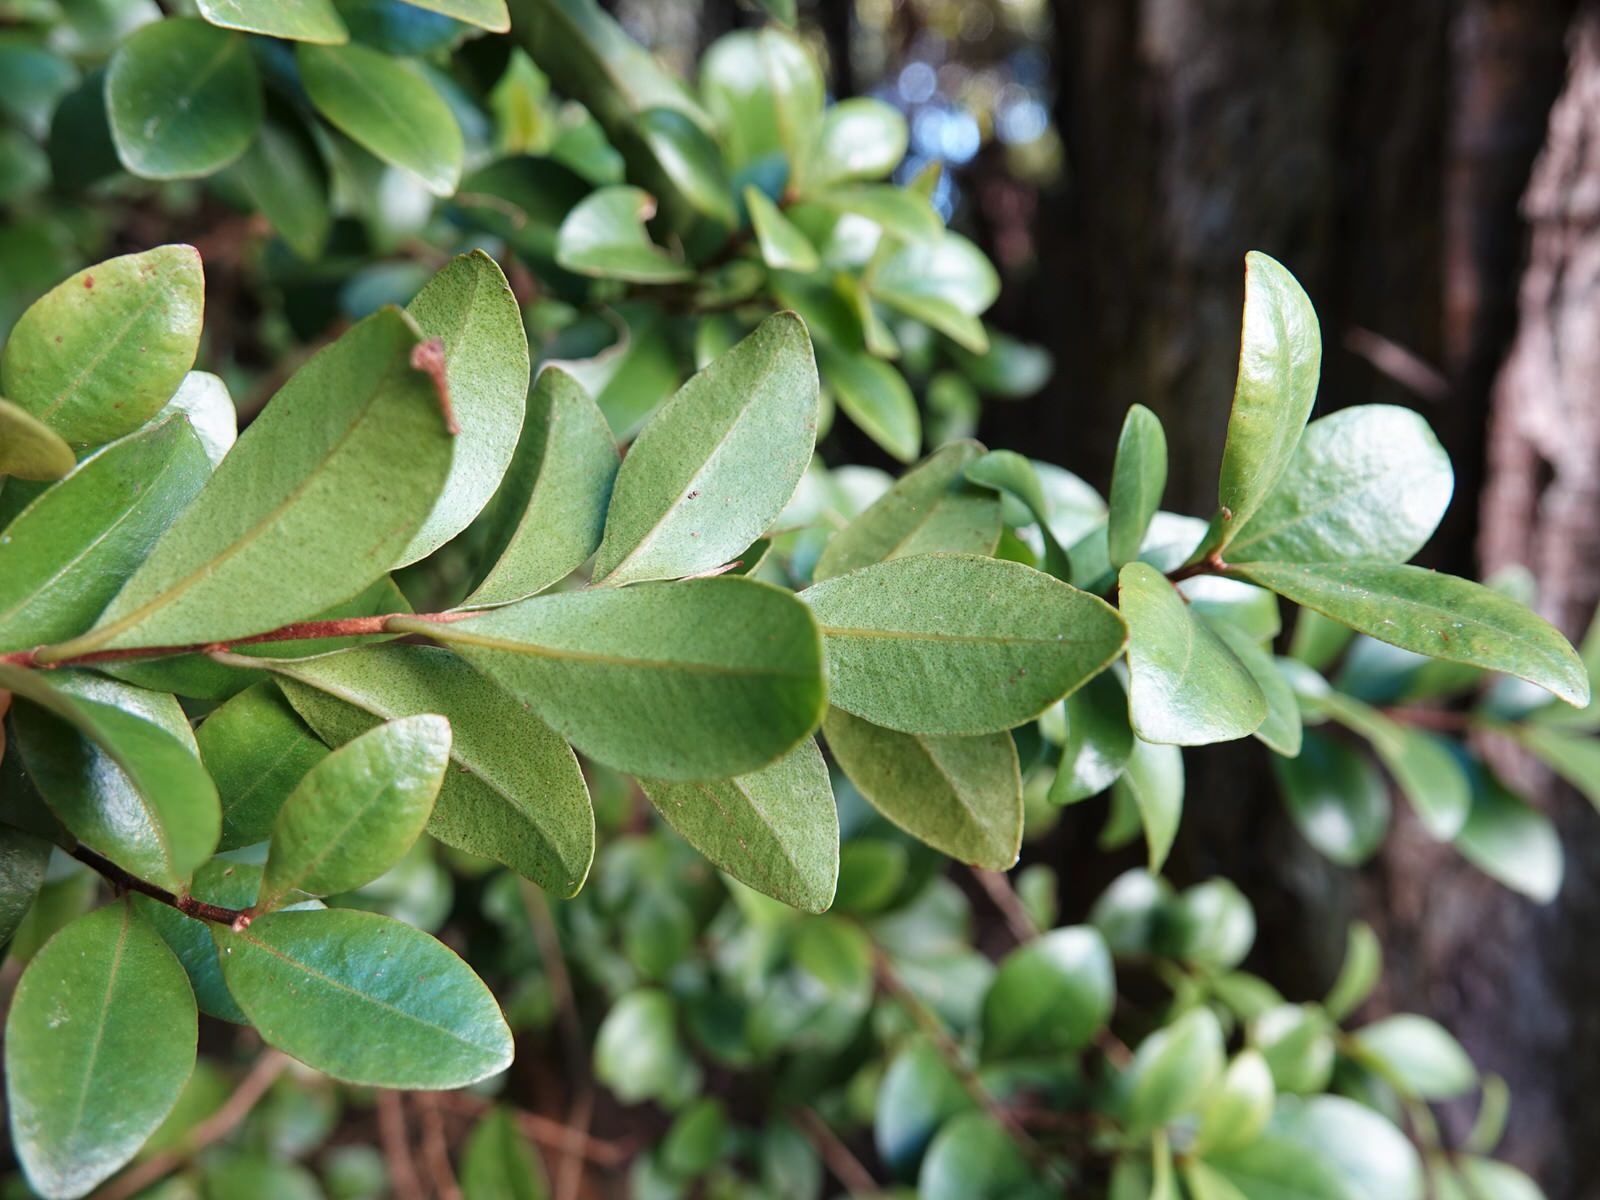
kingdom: Plantae
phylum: Tracheophyta
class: Magnoliopsida
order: Myrtales
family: Myrtaceae
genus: Metrosideros
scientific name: Metrosideros fulgens
